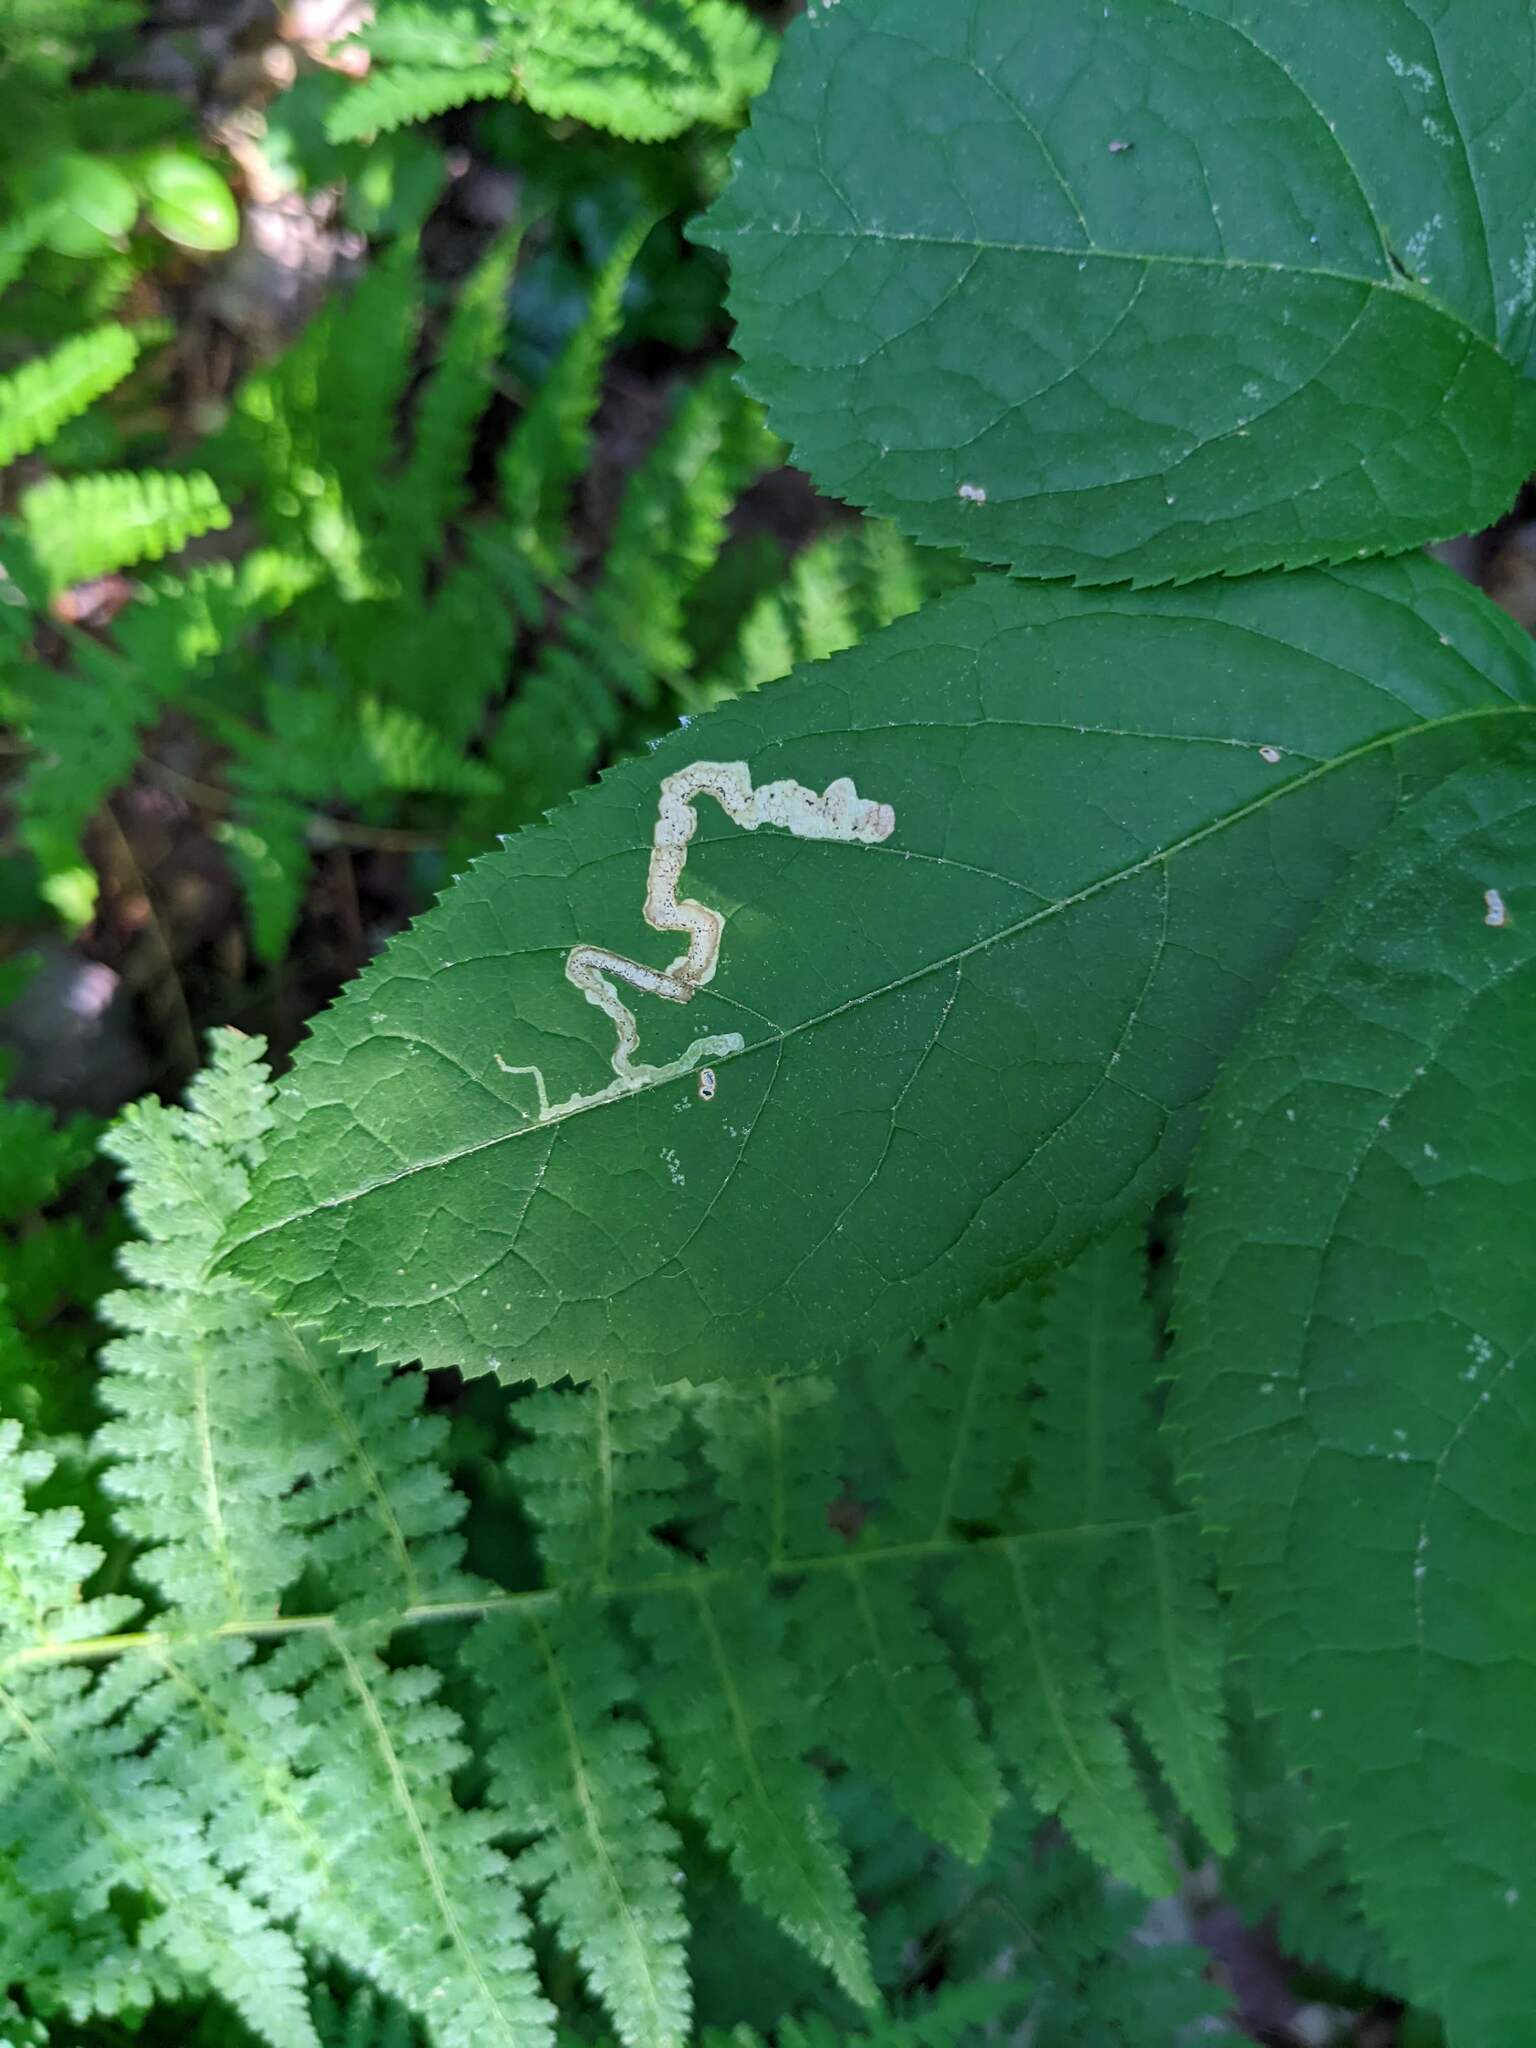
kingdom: Animalia
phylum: Arthropoda
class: Insecta
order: Diptera
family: Agromyzidae
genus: Phytomyza
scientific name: Phytomyza aralivora
